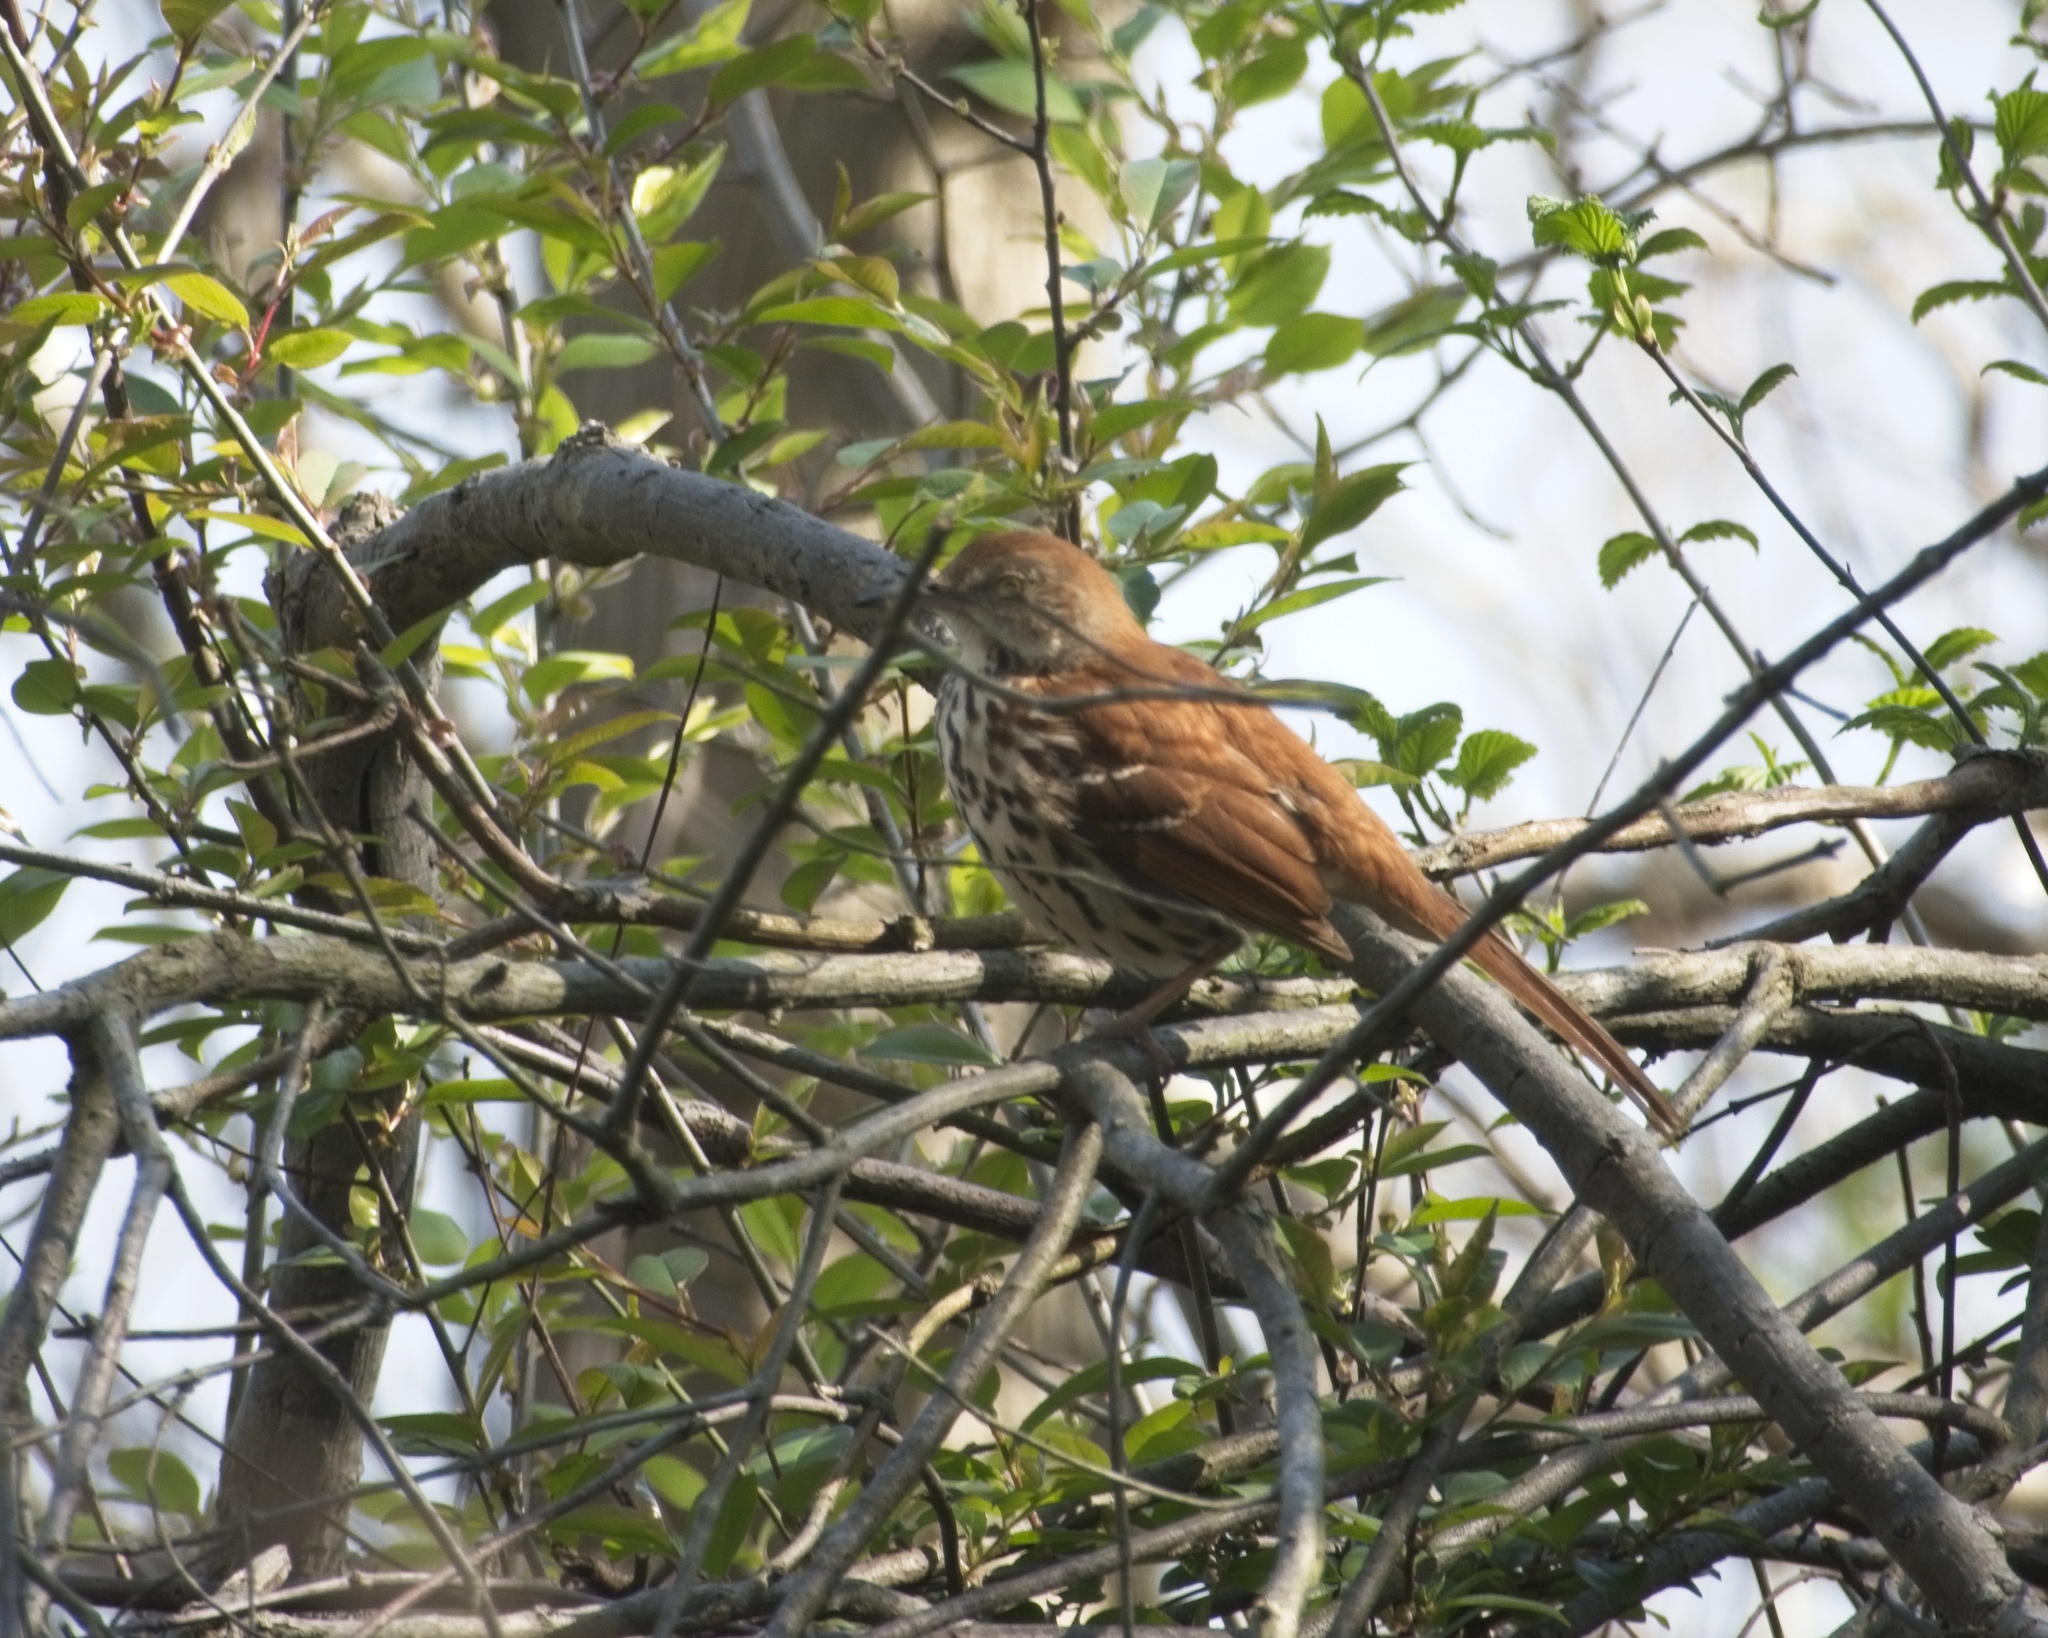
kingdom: Animalia
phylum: Chordata
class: Aves
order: Passeriformes
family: Mimidae
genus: Toxostoma
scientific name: Toxostoma rufum
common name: Brown thrasher
